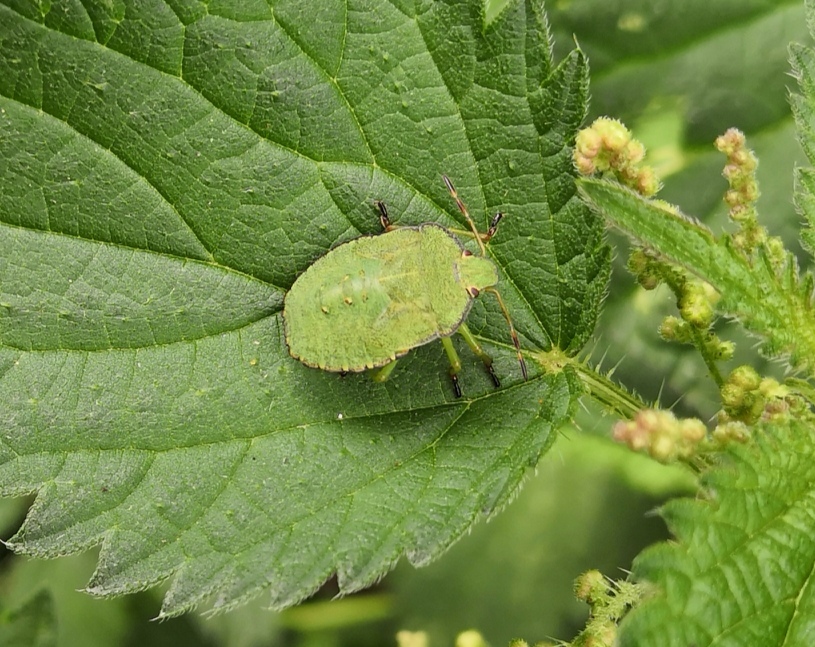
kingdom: Animalia
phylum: Arthropoda
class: Insecta
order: Hemiptera
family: Pentatomidae
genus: Palomena
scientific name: Palomena prasina
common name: Green shieldbug
